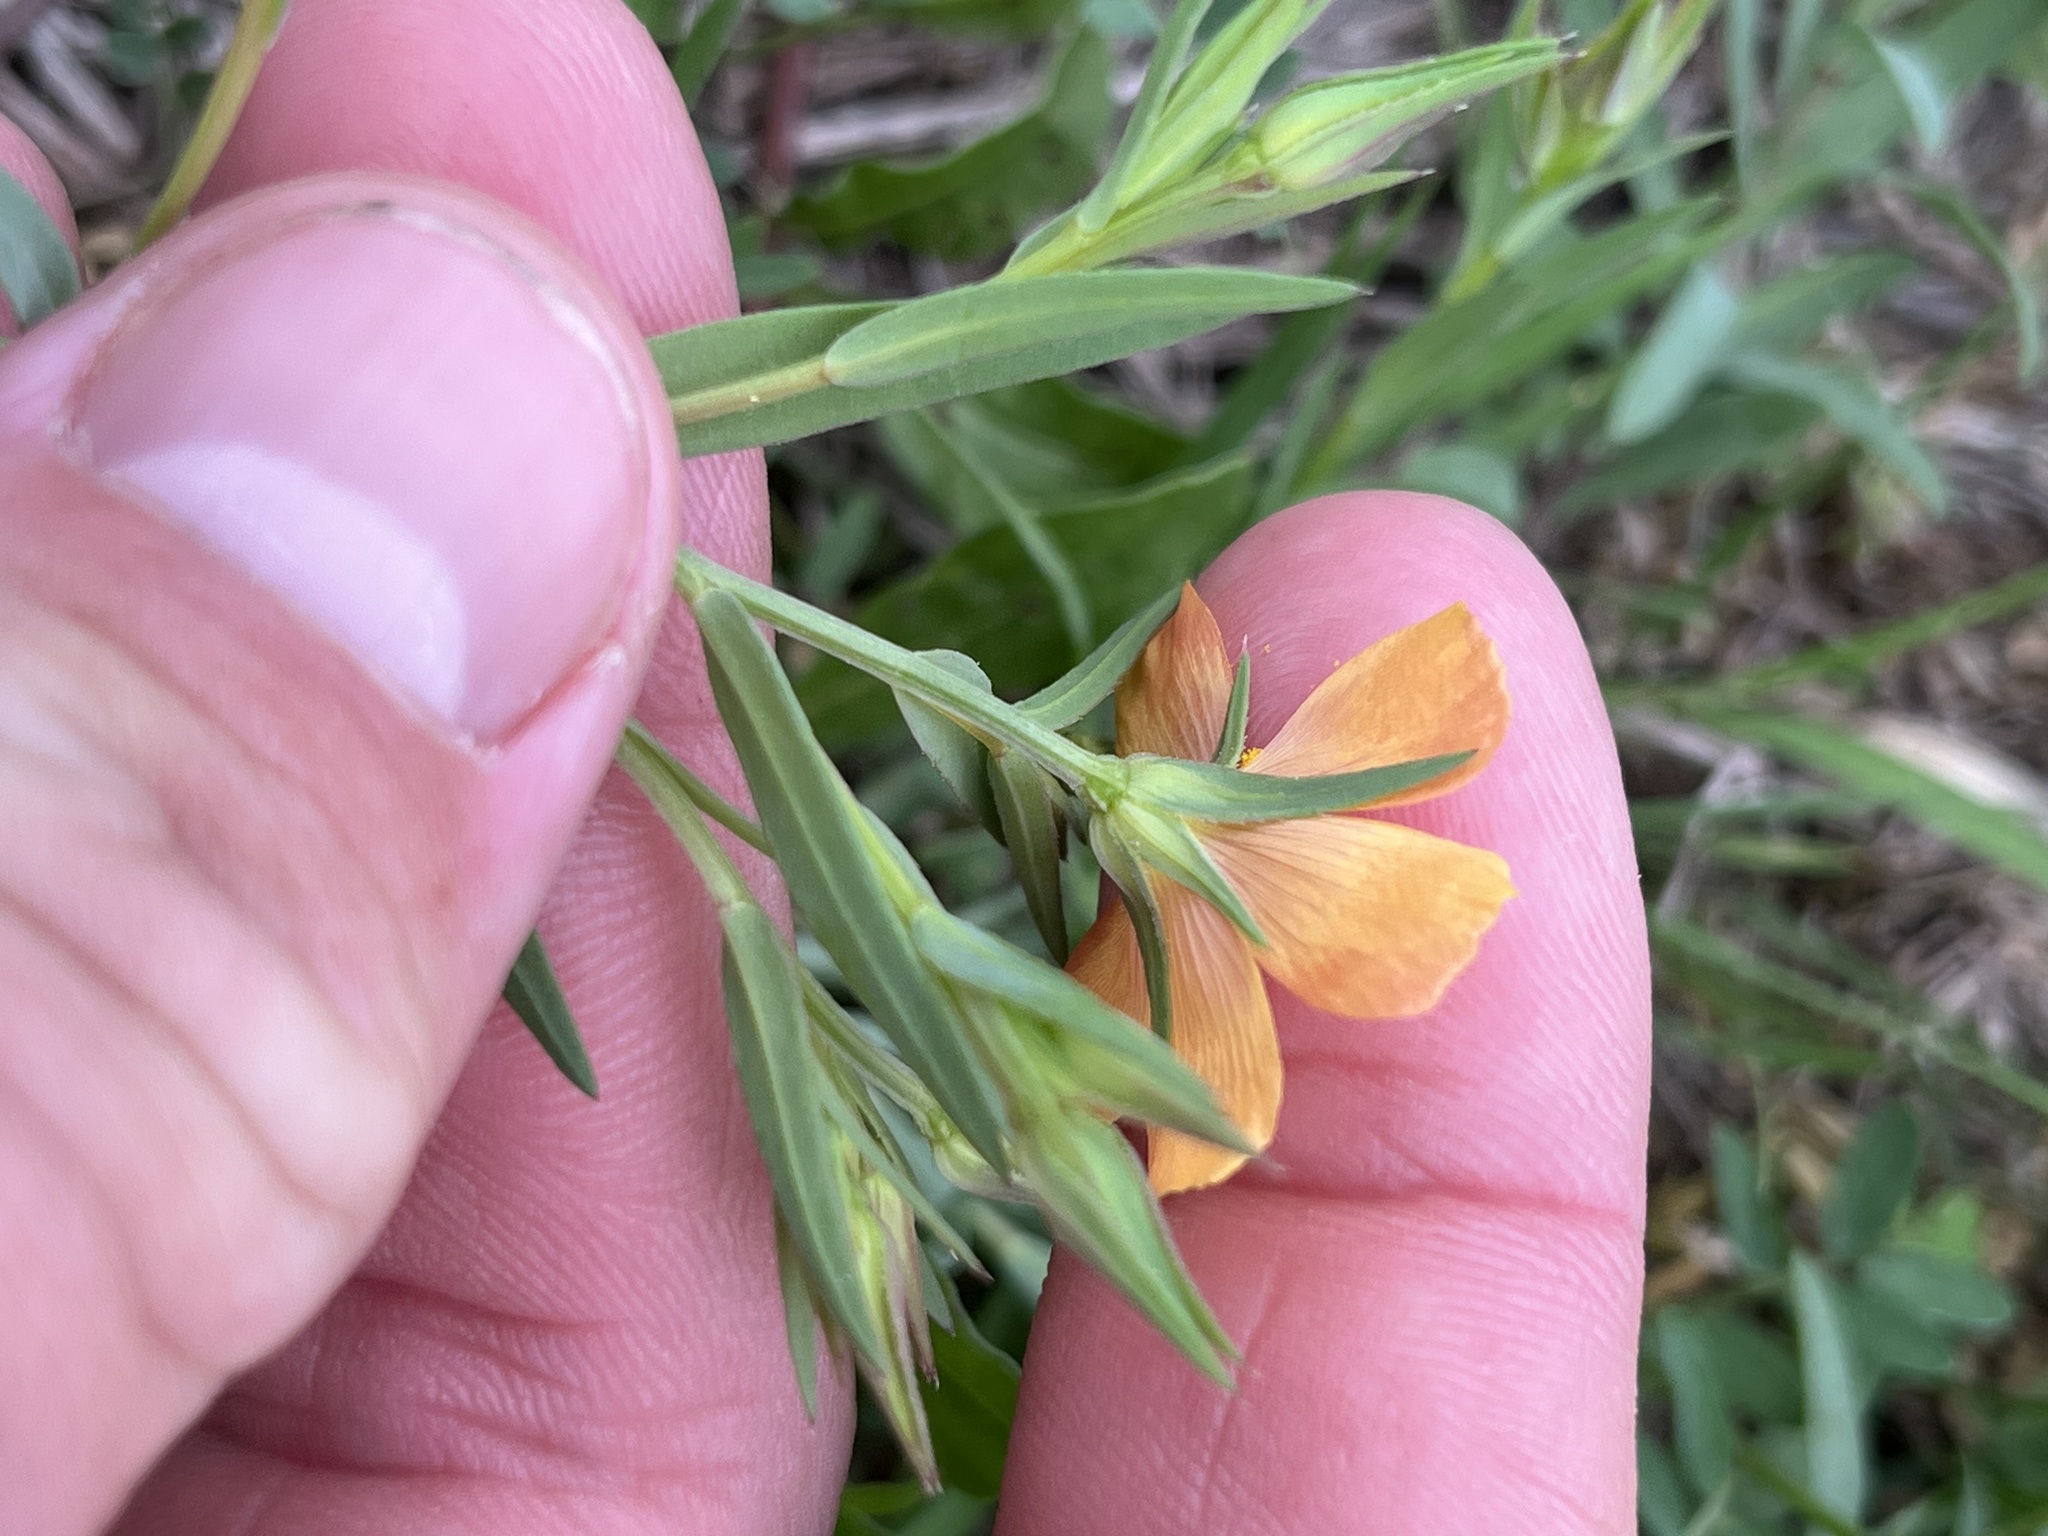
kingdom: Plantae
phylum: Tracheophyta
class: Magnoliopsida
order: Malpighiales
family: Linaceae
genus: Linum
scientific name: Linum berlandieri
